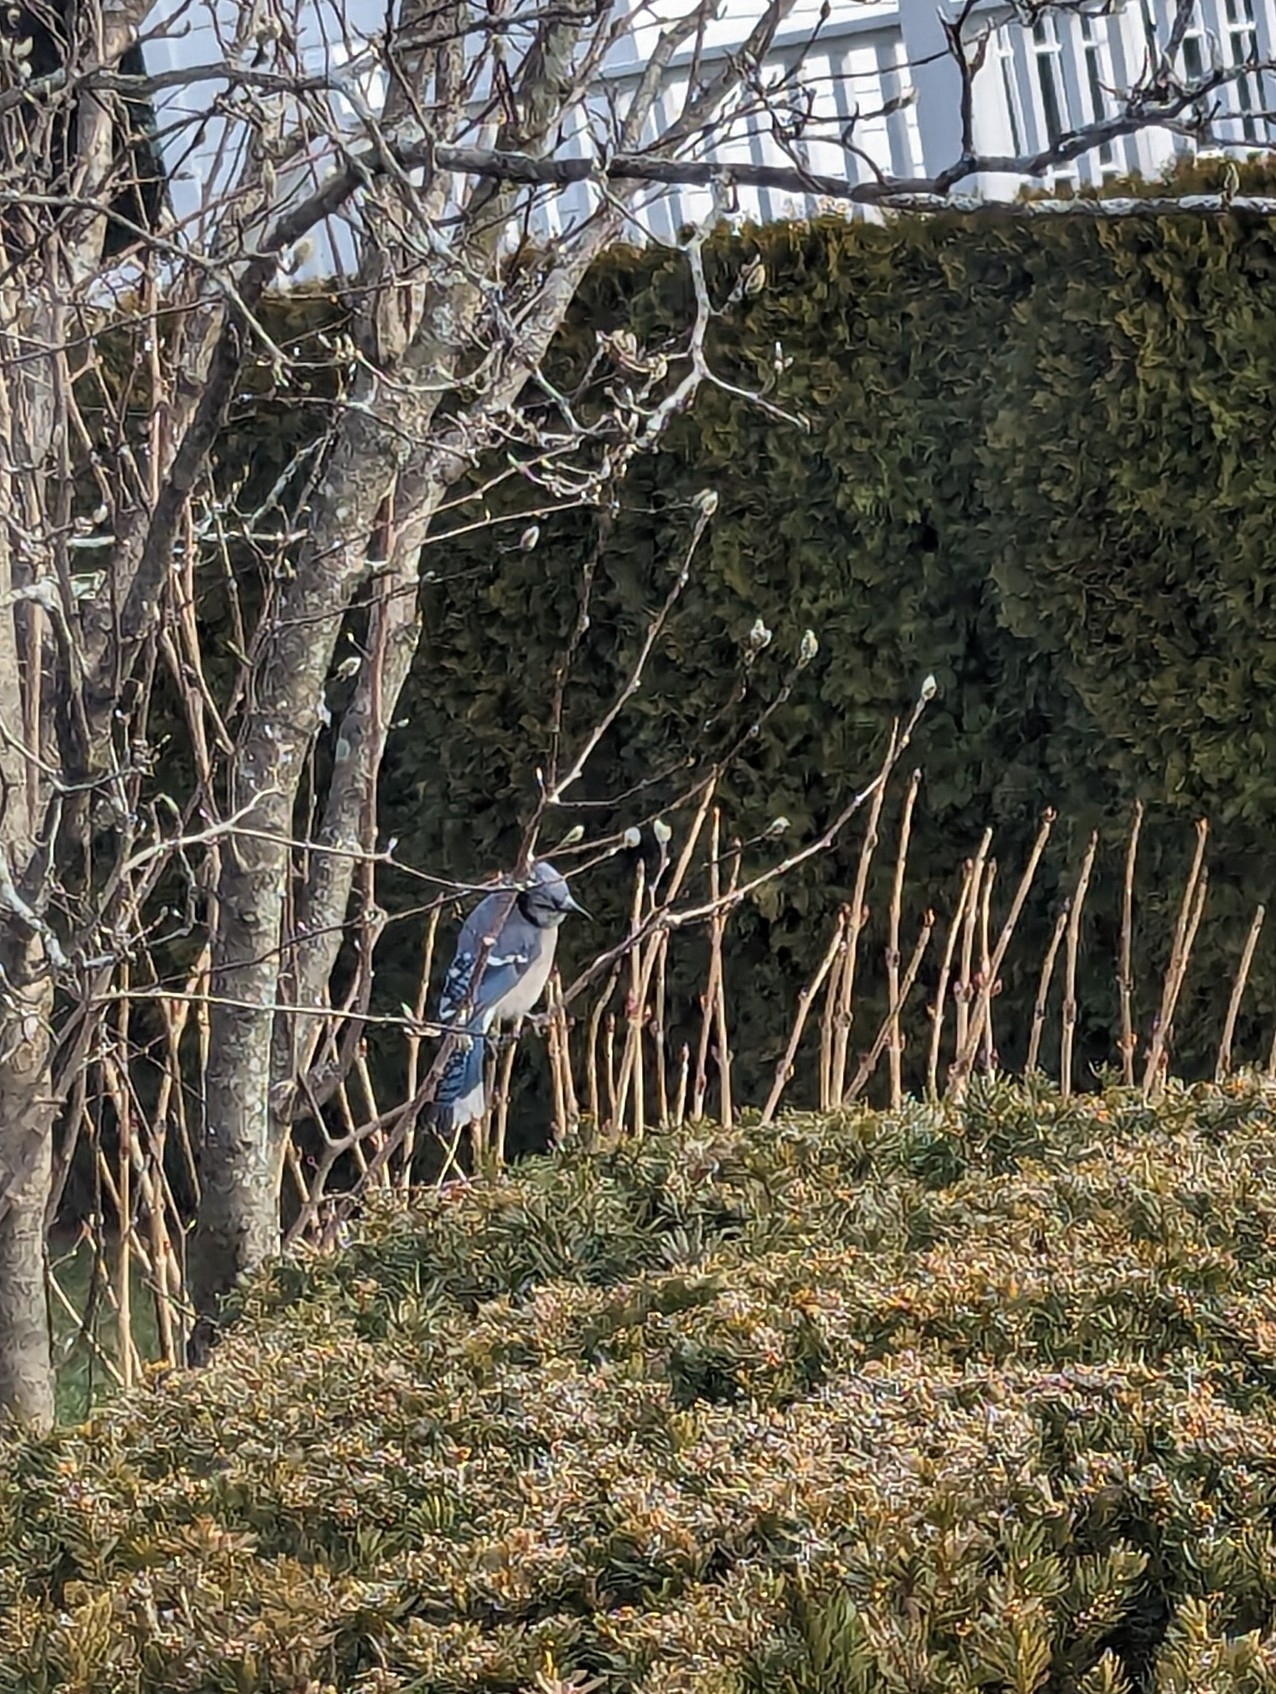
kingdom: Animalia
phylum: Chordata
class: Aves
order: Passeriformes
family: Corvidae
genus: Cyanocitta
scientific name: Cyanocitta cristata
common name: Blue jay
